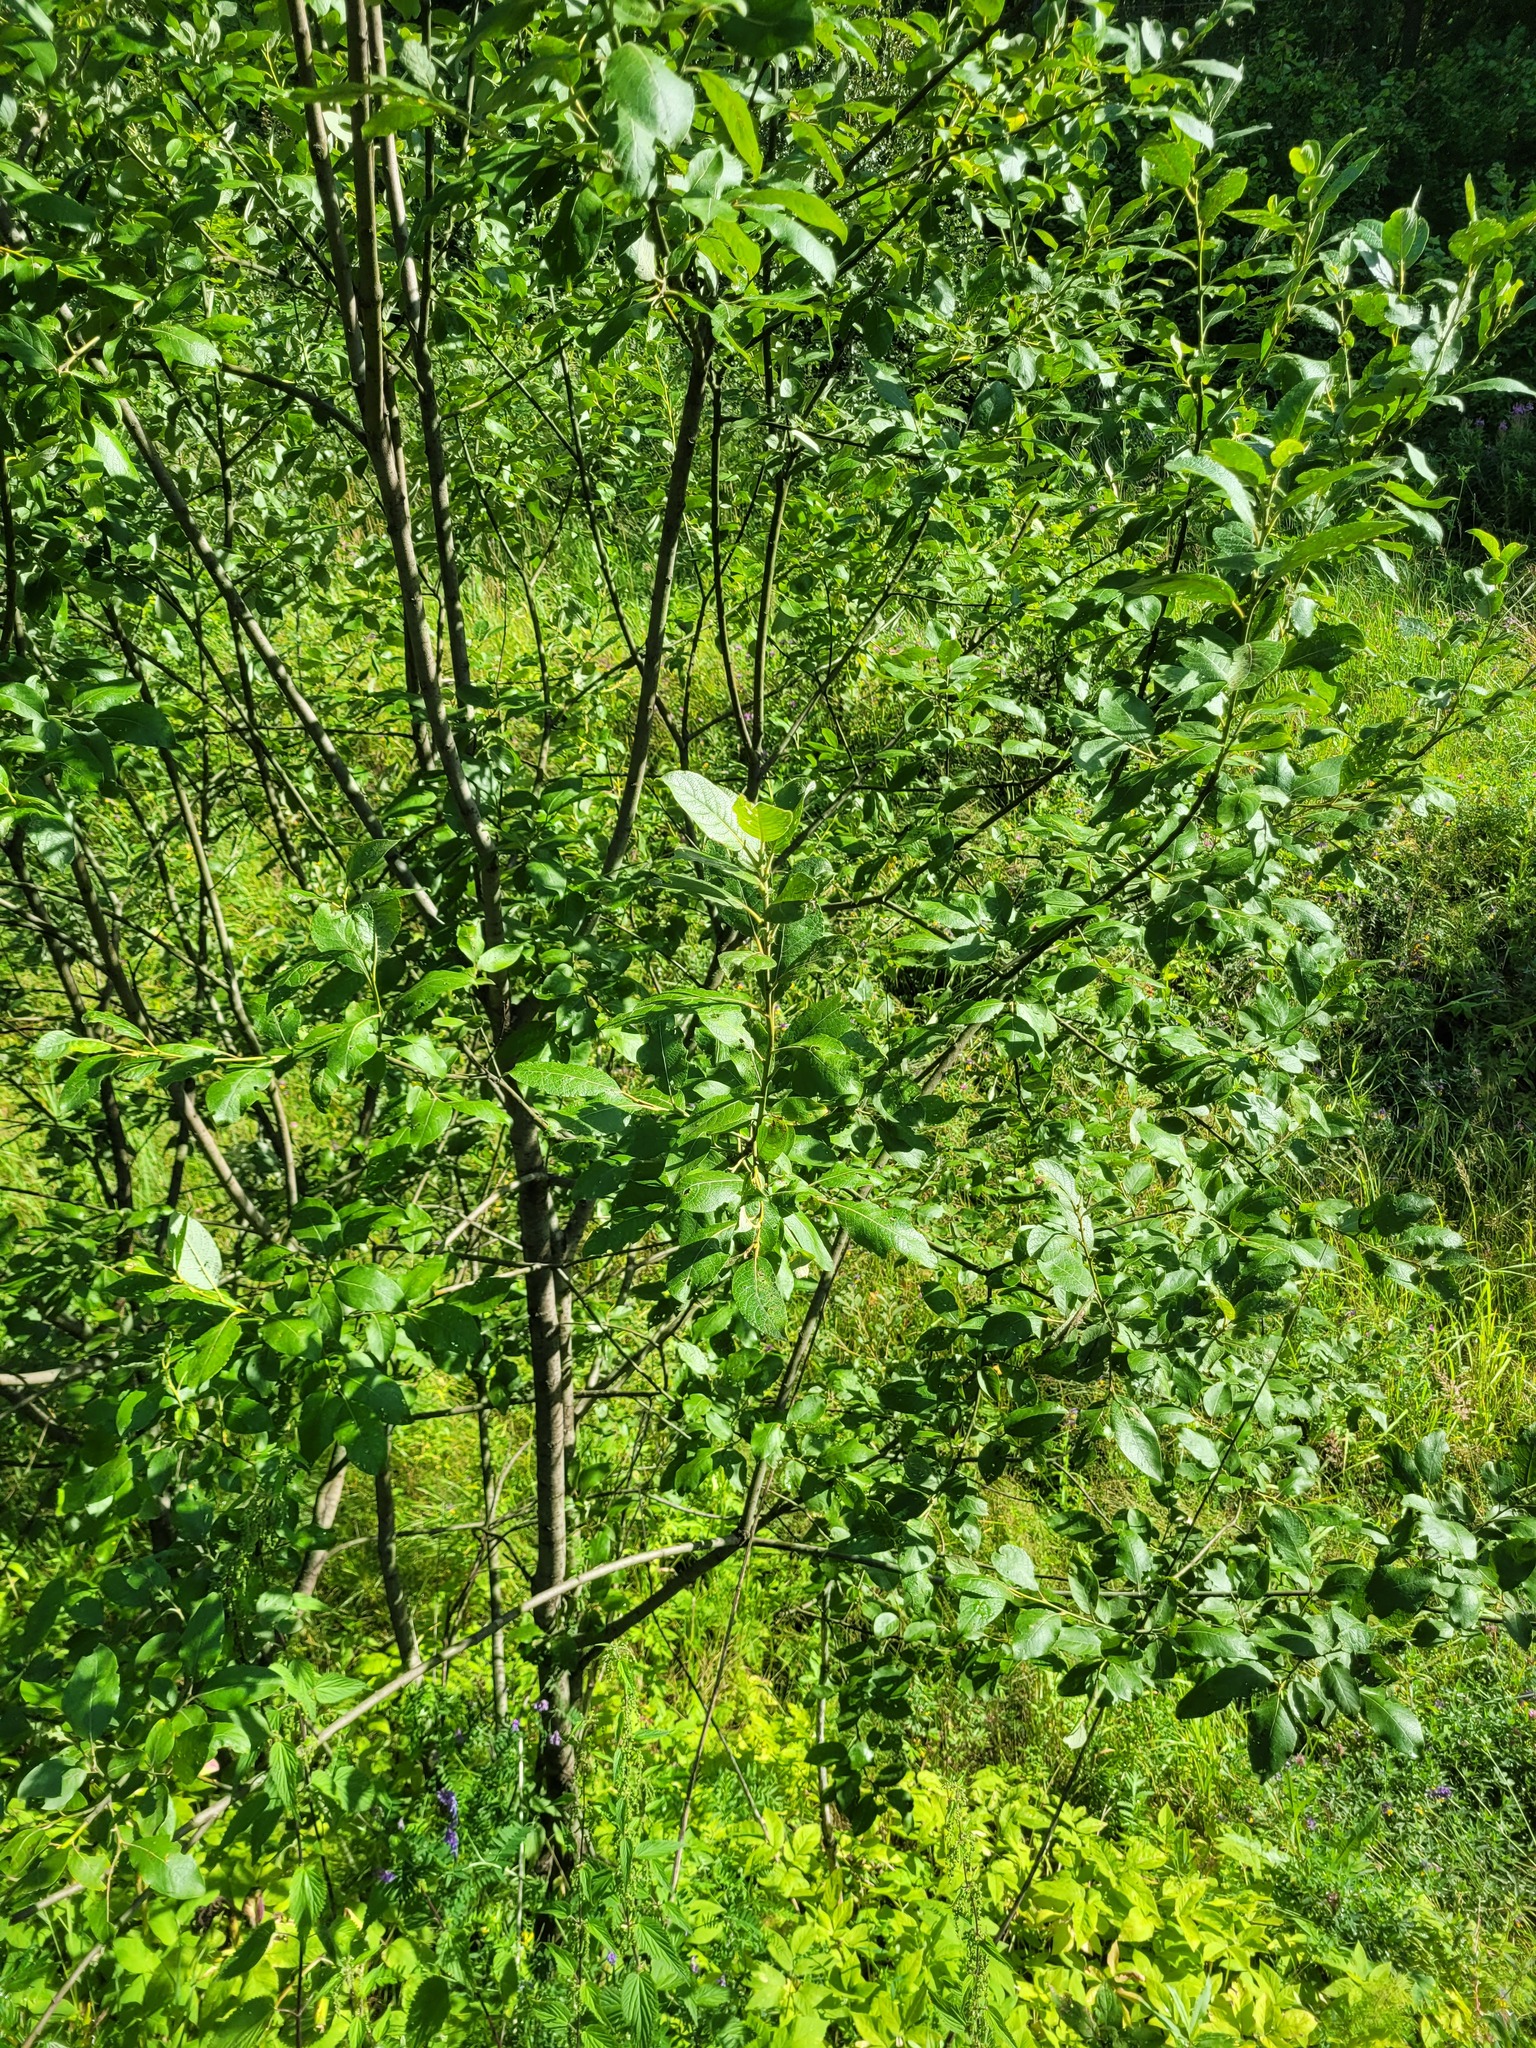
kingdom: Plantae
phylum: Tracheophyta
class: Magnoliopsida
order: Malpighiales
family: Salicaceae
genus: Salix
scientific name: Salix caprea
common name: Goat willow
